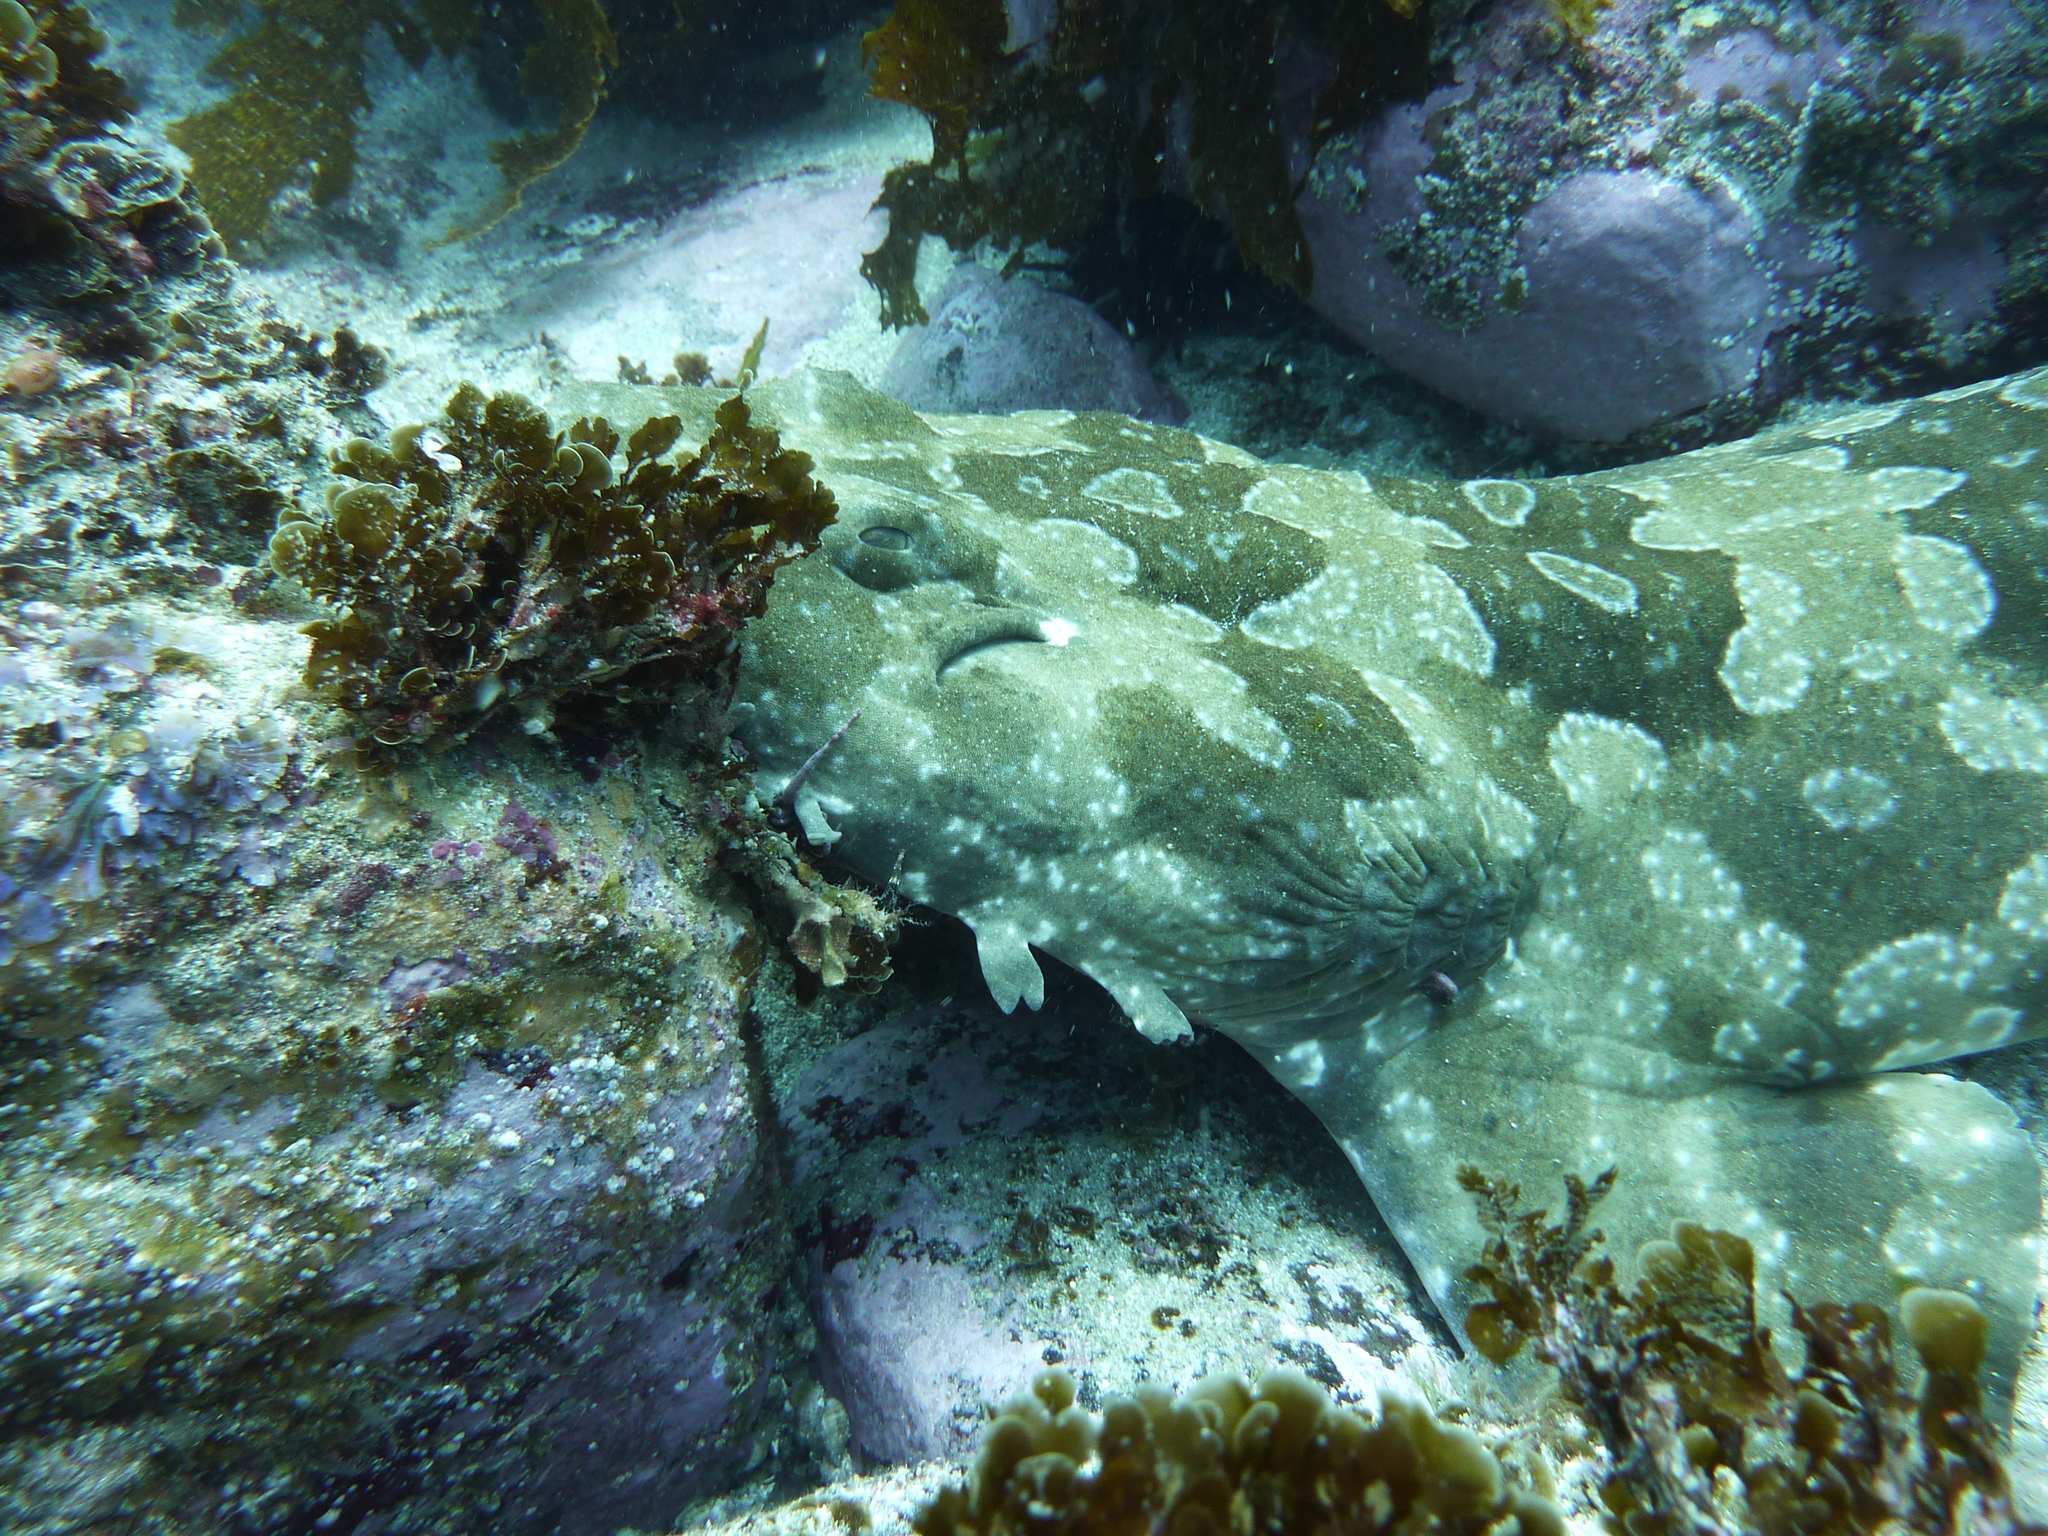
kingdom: Animalia
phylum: Chordata
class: Elasmobranchii
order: Orectolobiformes
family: Orectolobidae
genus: Orectolobus
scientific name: Orectolobus maculatus
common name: Spotted wobbegong
